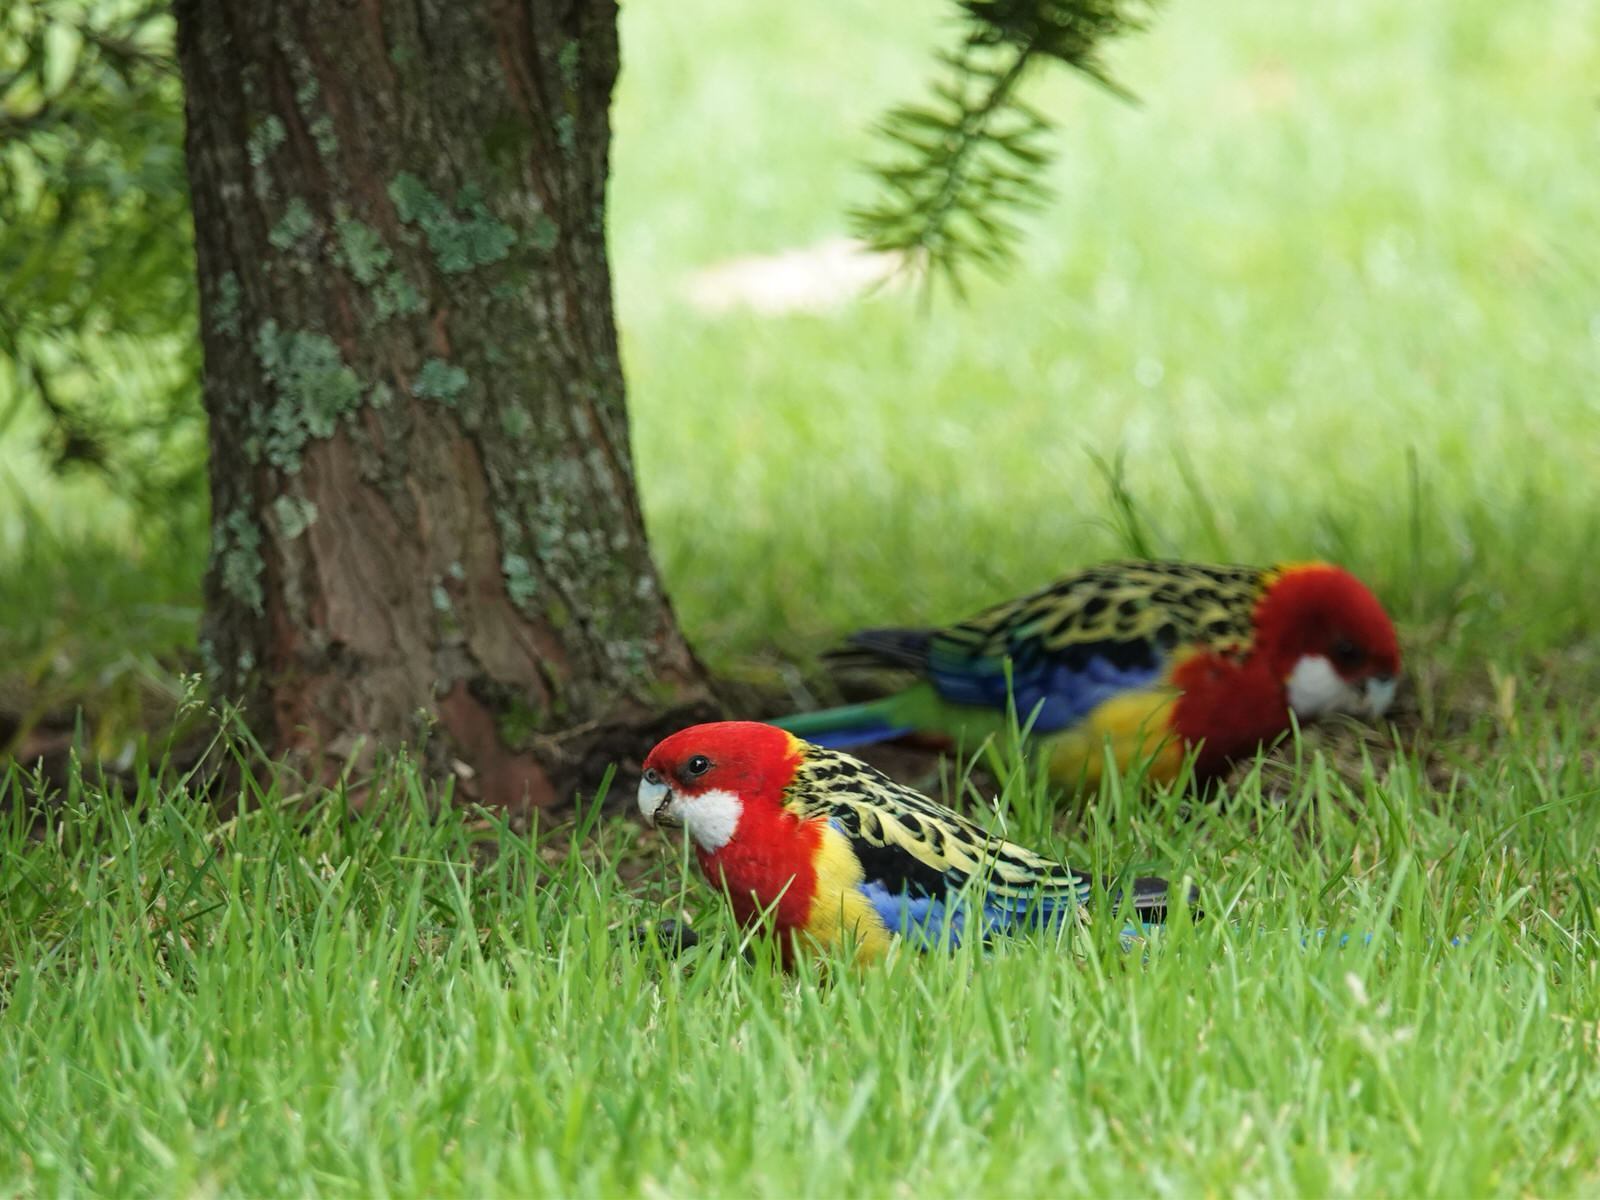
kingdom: Animalia
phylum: Chordata
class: Aves
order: Psittaciformes
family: Psittacidae
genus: Platycercus
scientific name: Platycercus eximius
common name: Eastern rosella
